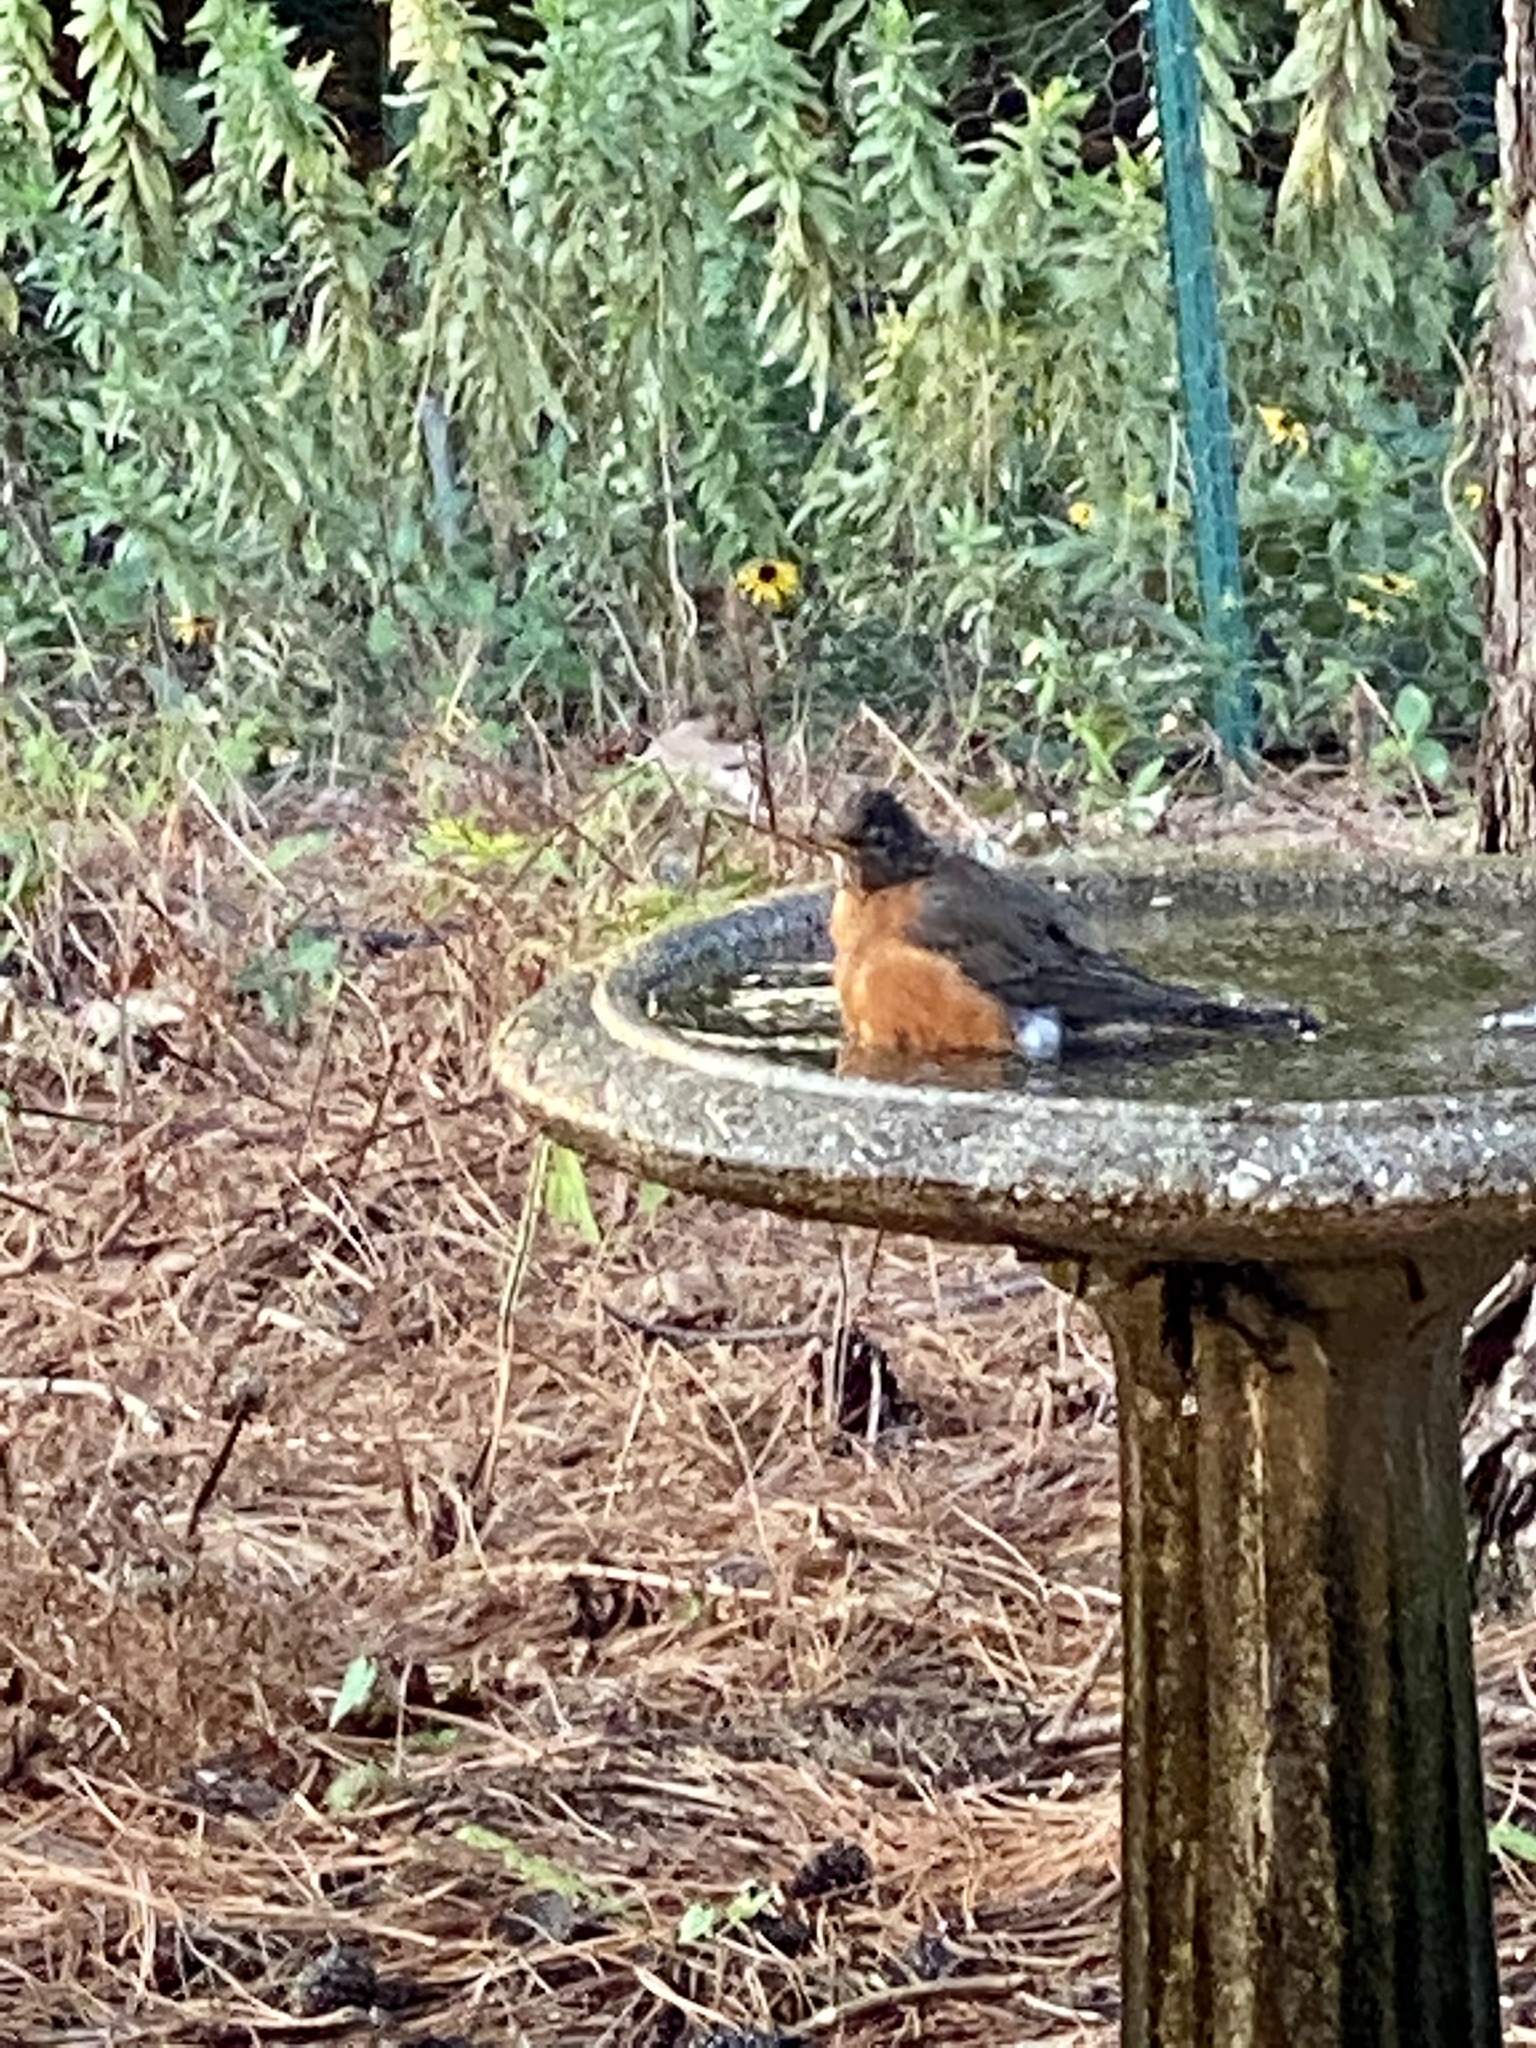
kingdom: Animalia
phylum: Chordata
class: Aves
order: Passeriformes
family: Turdidae
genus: Turdus
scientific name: Turdus migratorius
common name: American robin
